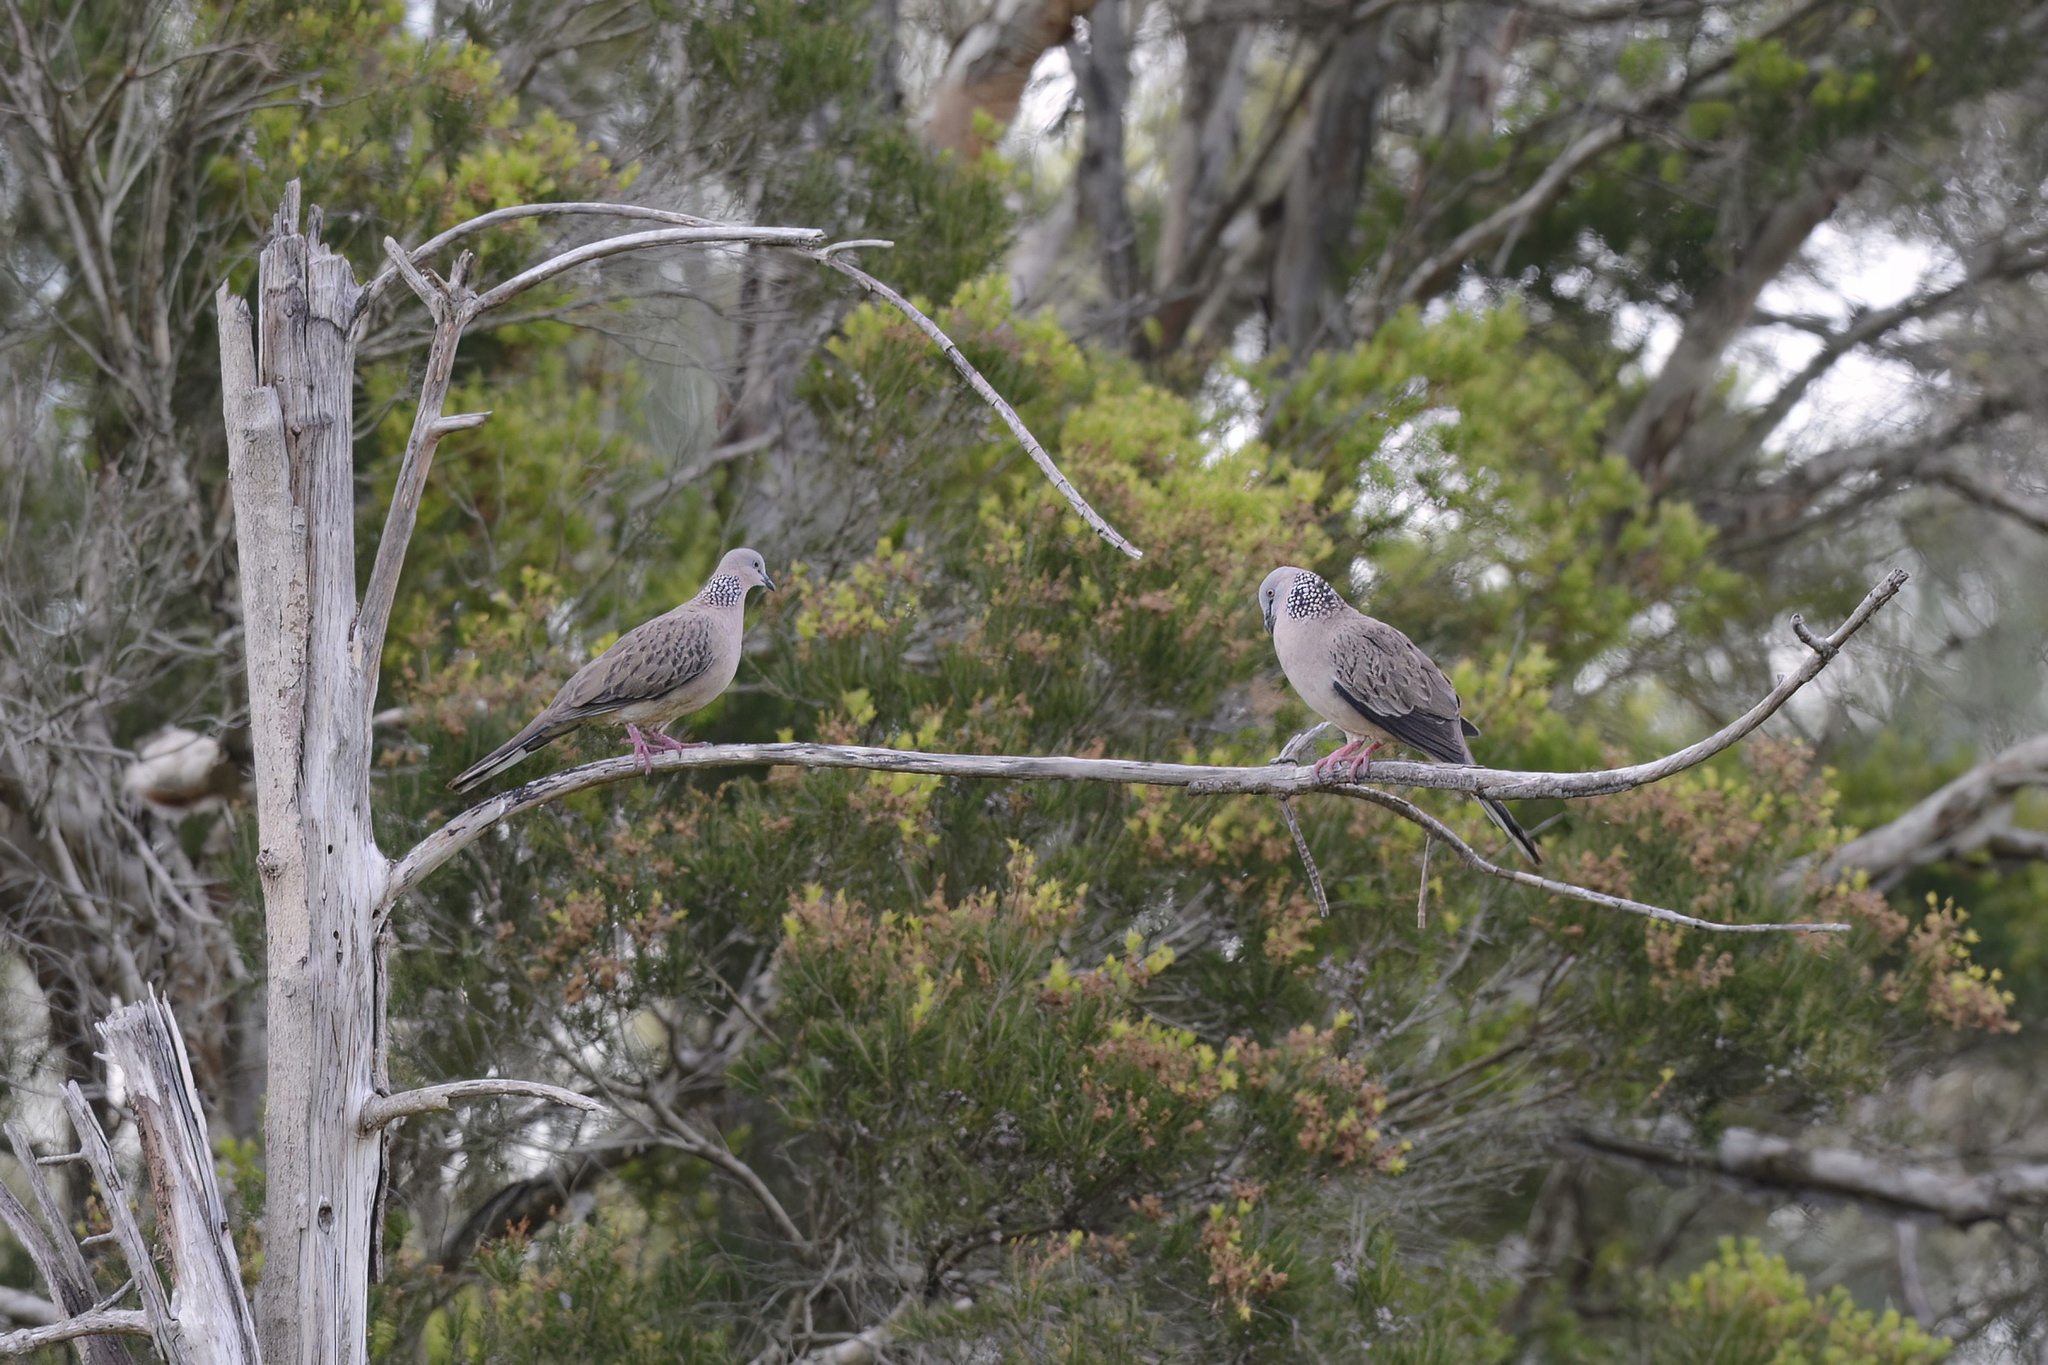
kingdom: Animalia
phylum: Chordata
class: Aves
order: Columbiformes
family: Columbidae
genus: Spilopelia
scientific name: Spilopelia chinensis
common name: Spotted dove
